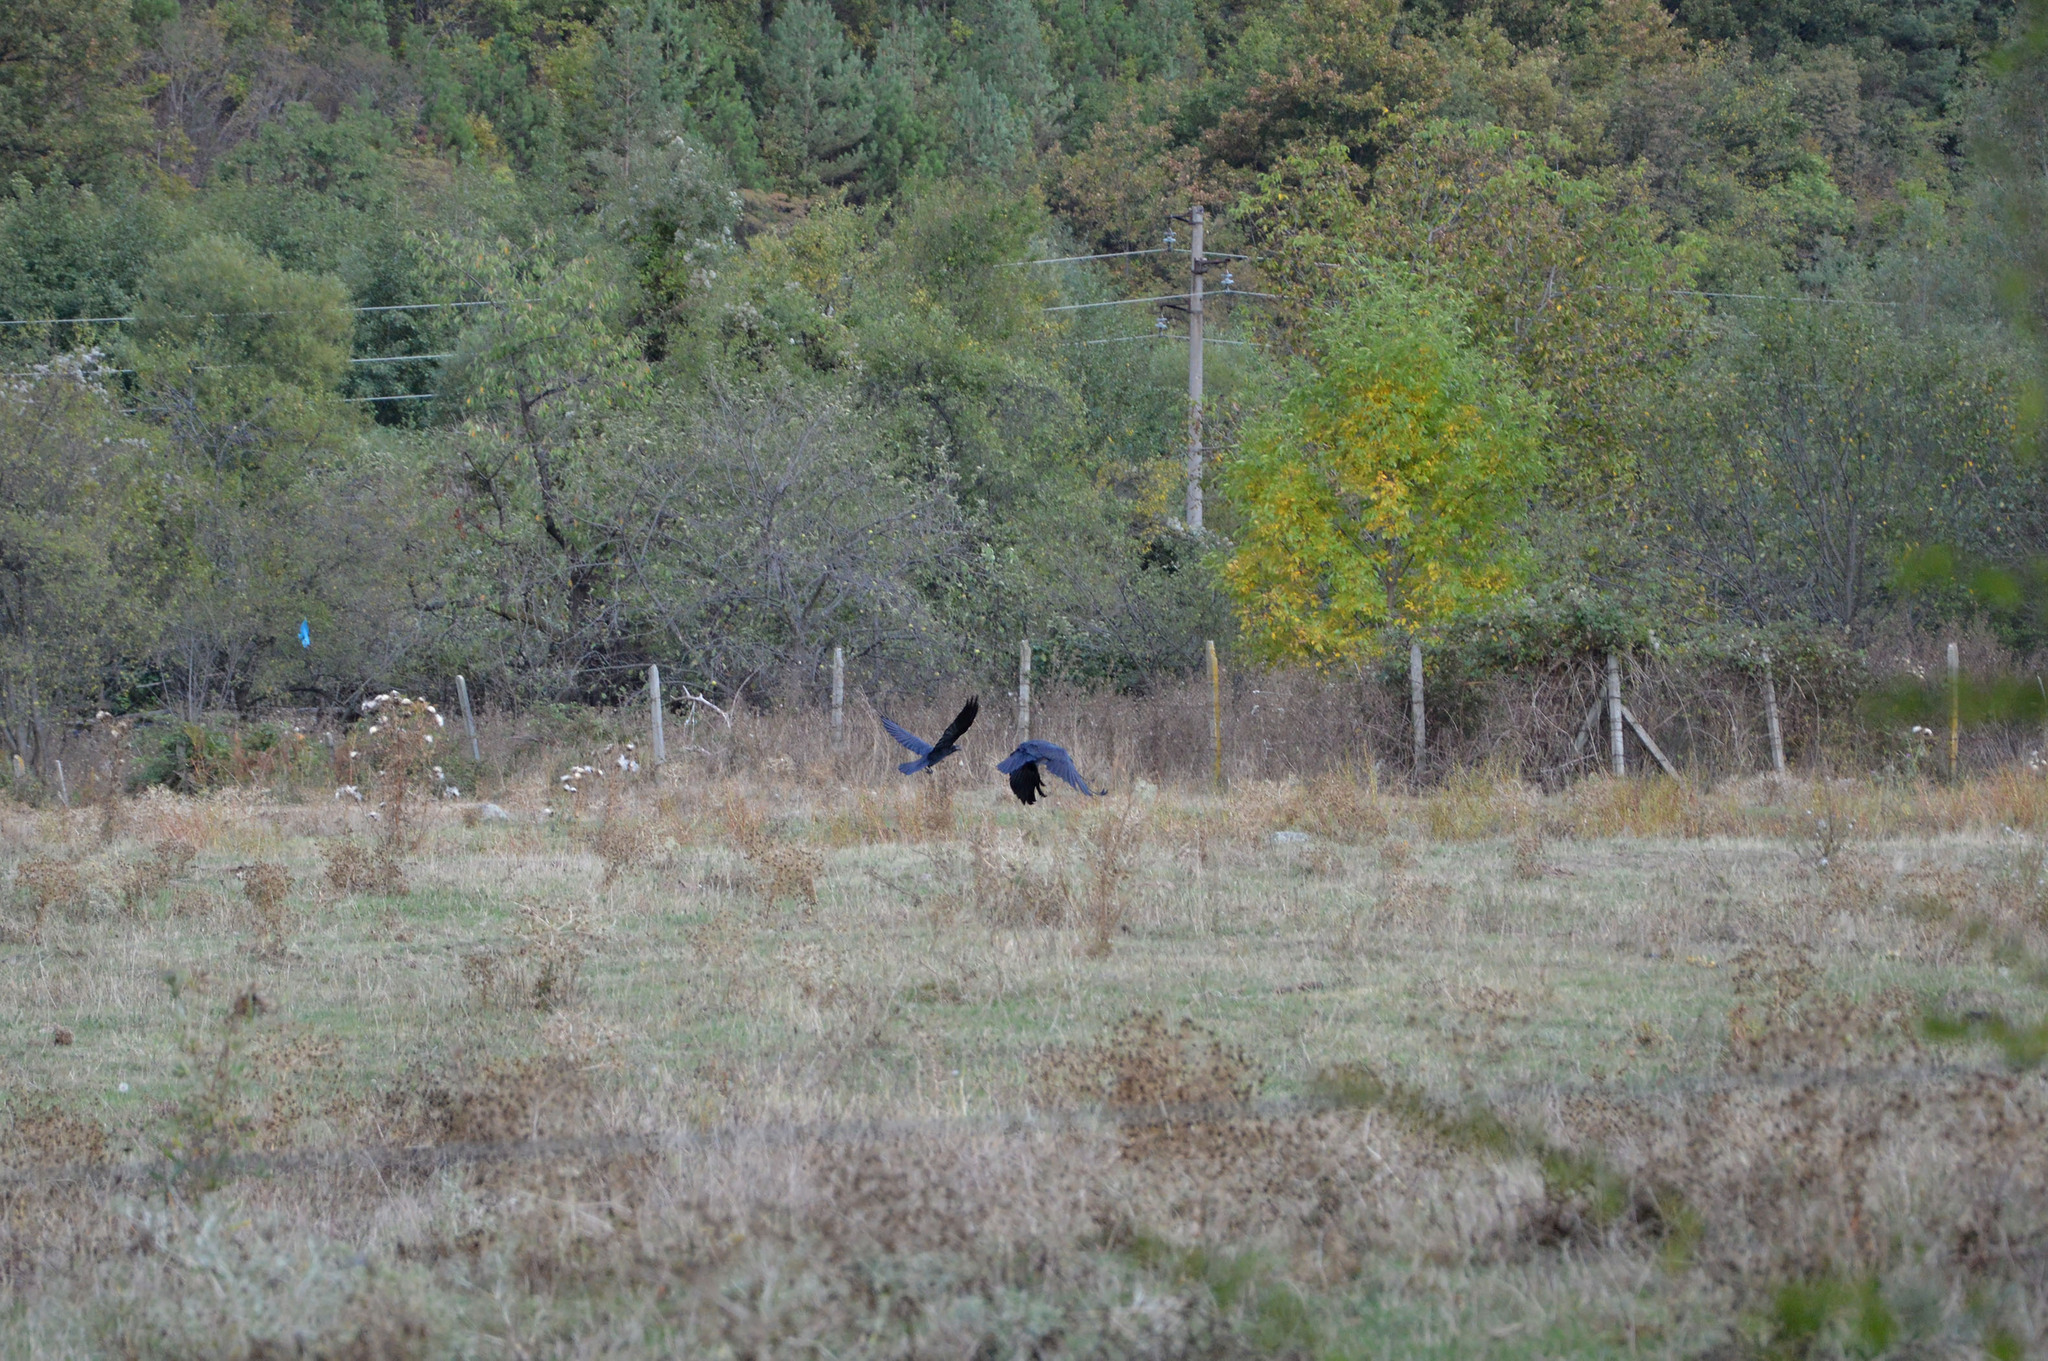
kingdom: Animalia
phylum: Chordata
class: Aves
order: Passeriformes
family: Corvidae
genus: Corvus
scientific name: Corvus corax
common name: Common raven
